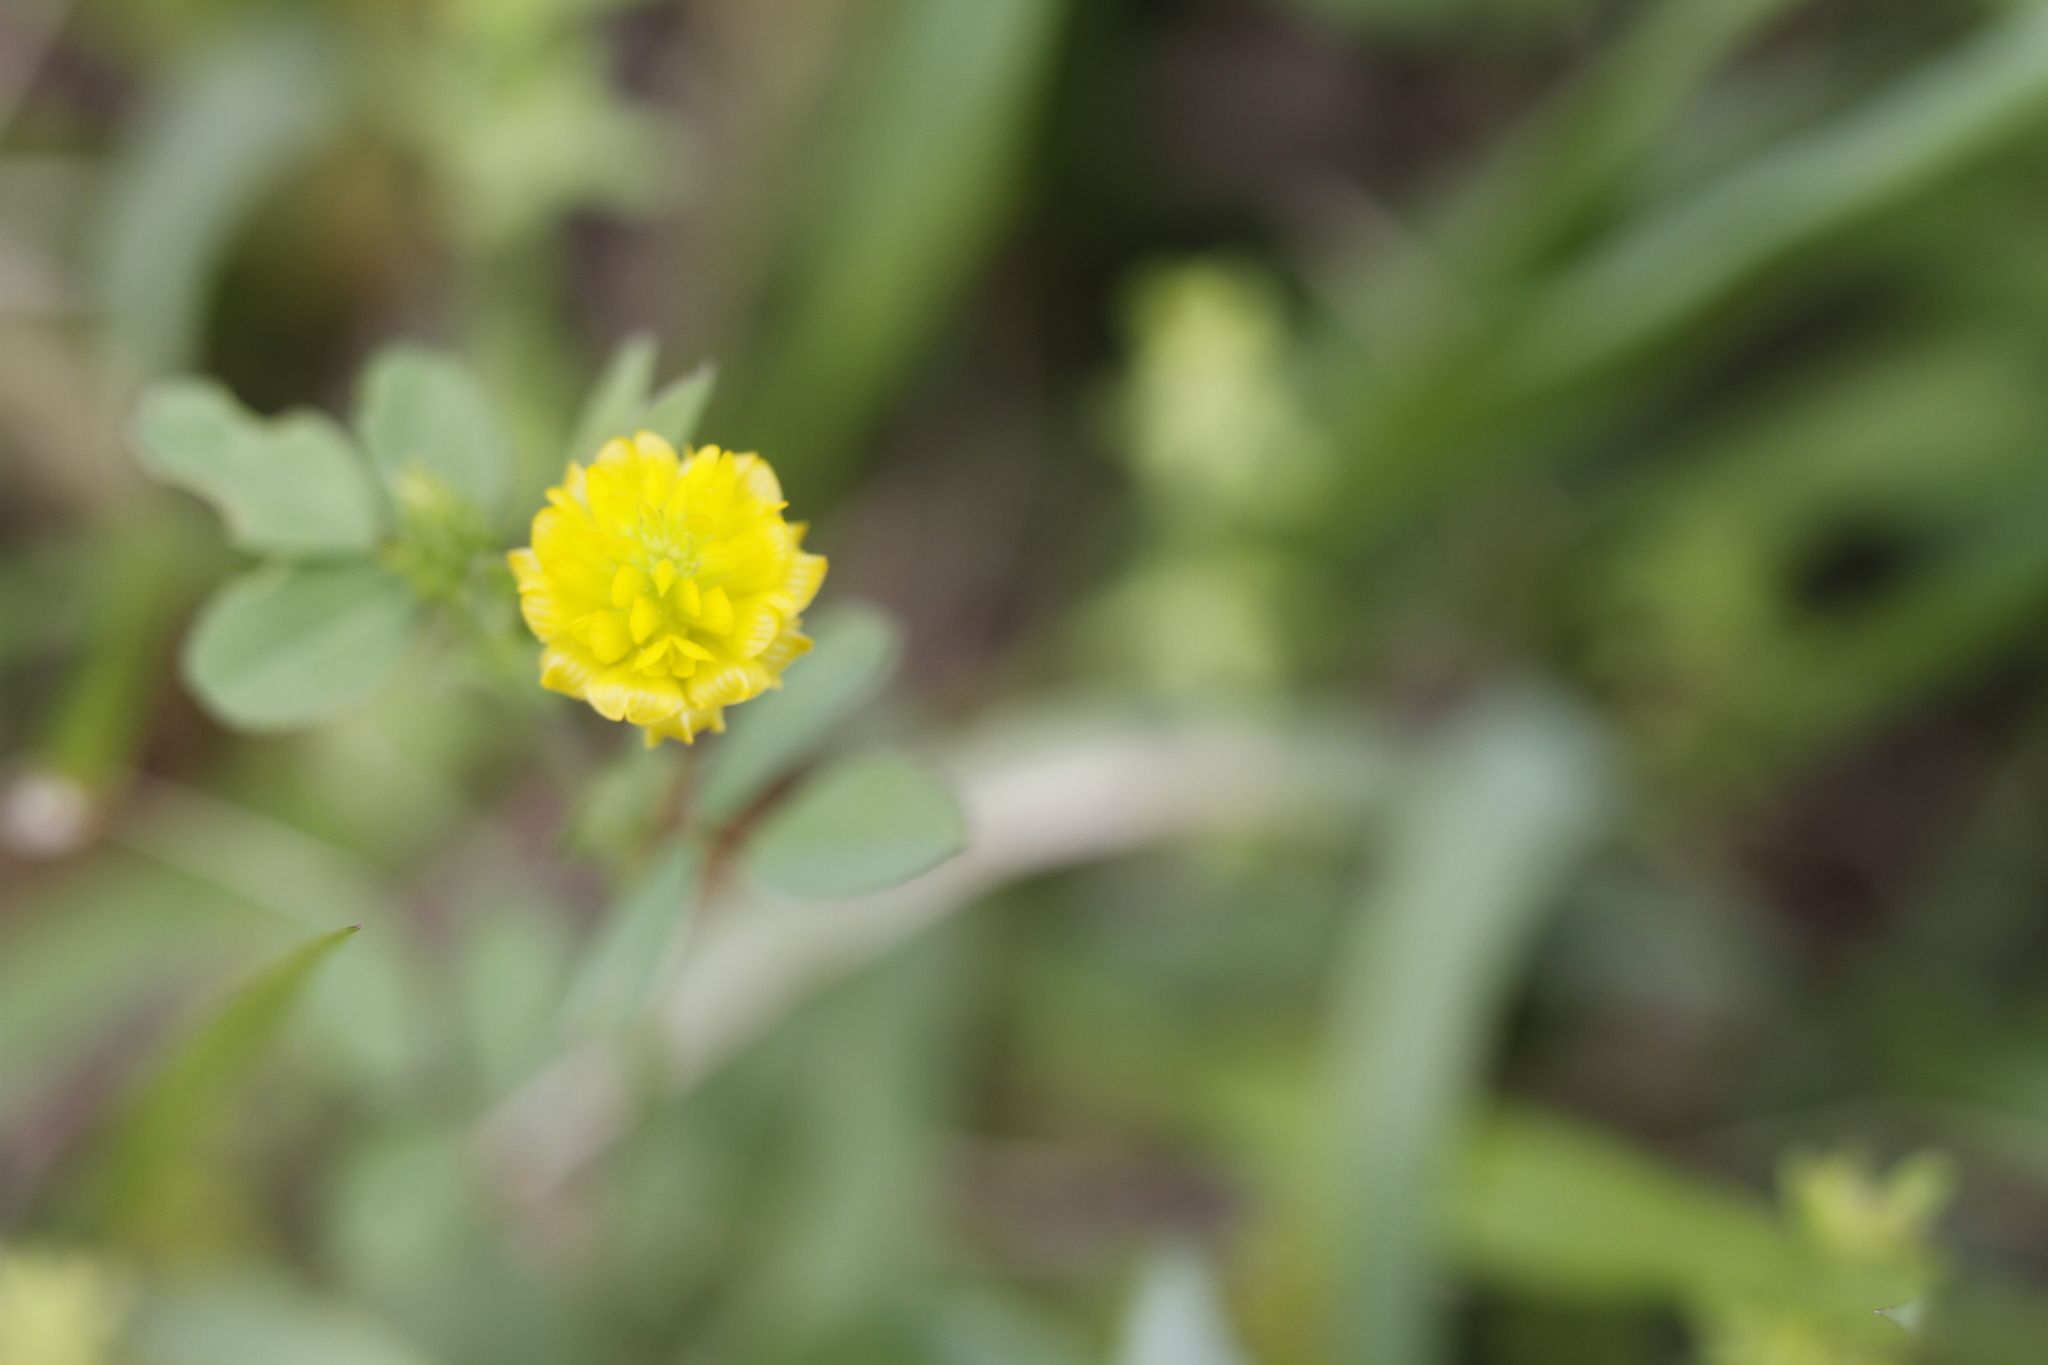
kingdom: Plantae
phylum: Tracheophyta
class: Magnoliopsida
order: Fabales
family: Fabaceae
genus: Trifolium
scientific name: Trifolium campestre
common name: Field clover
